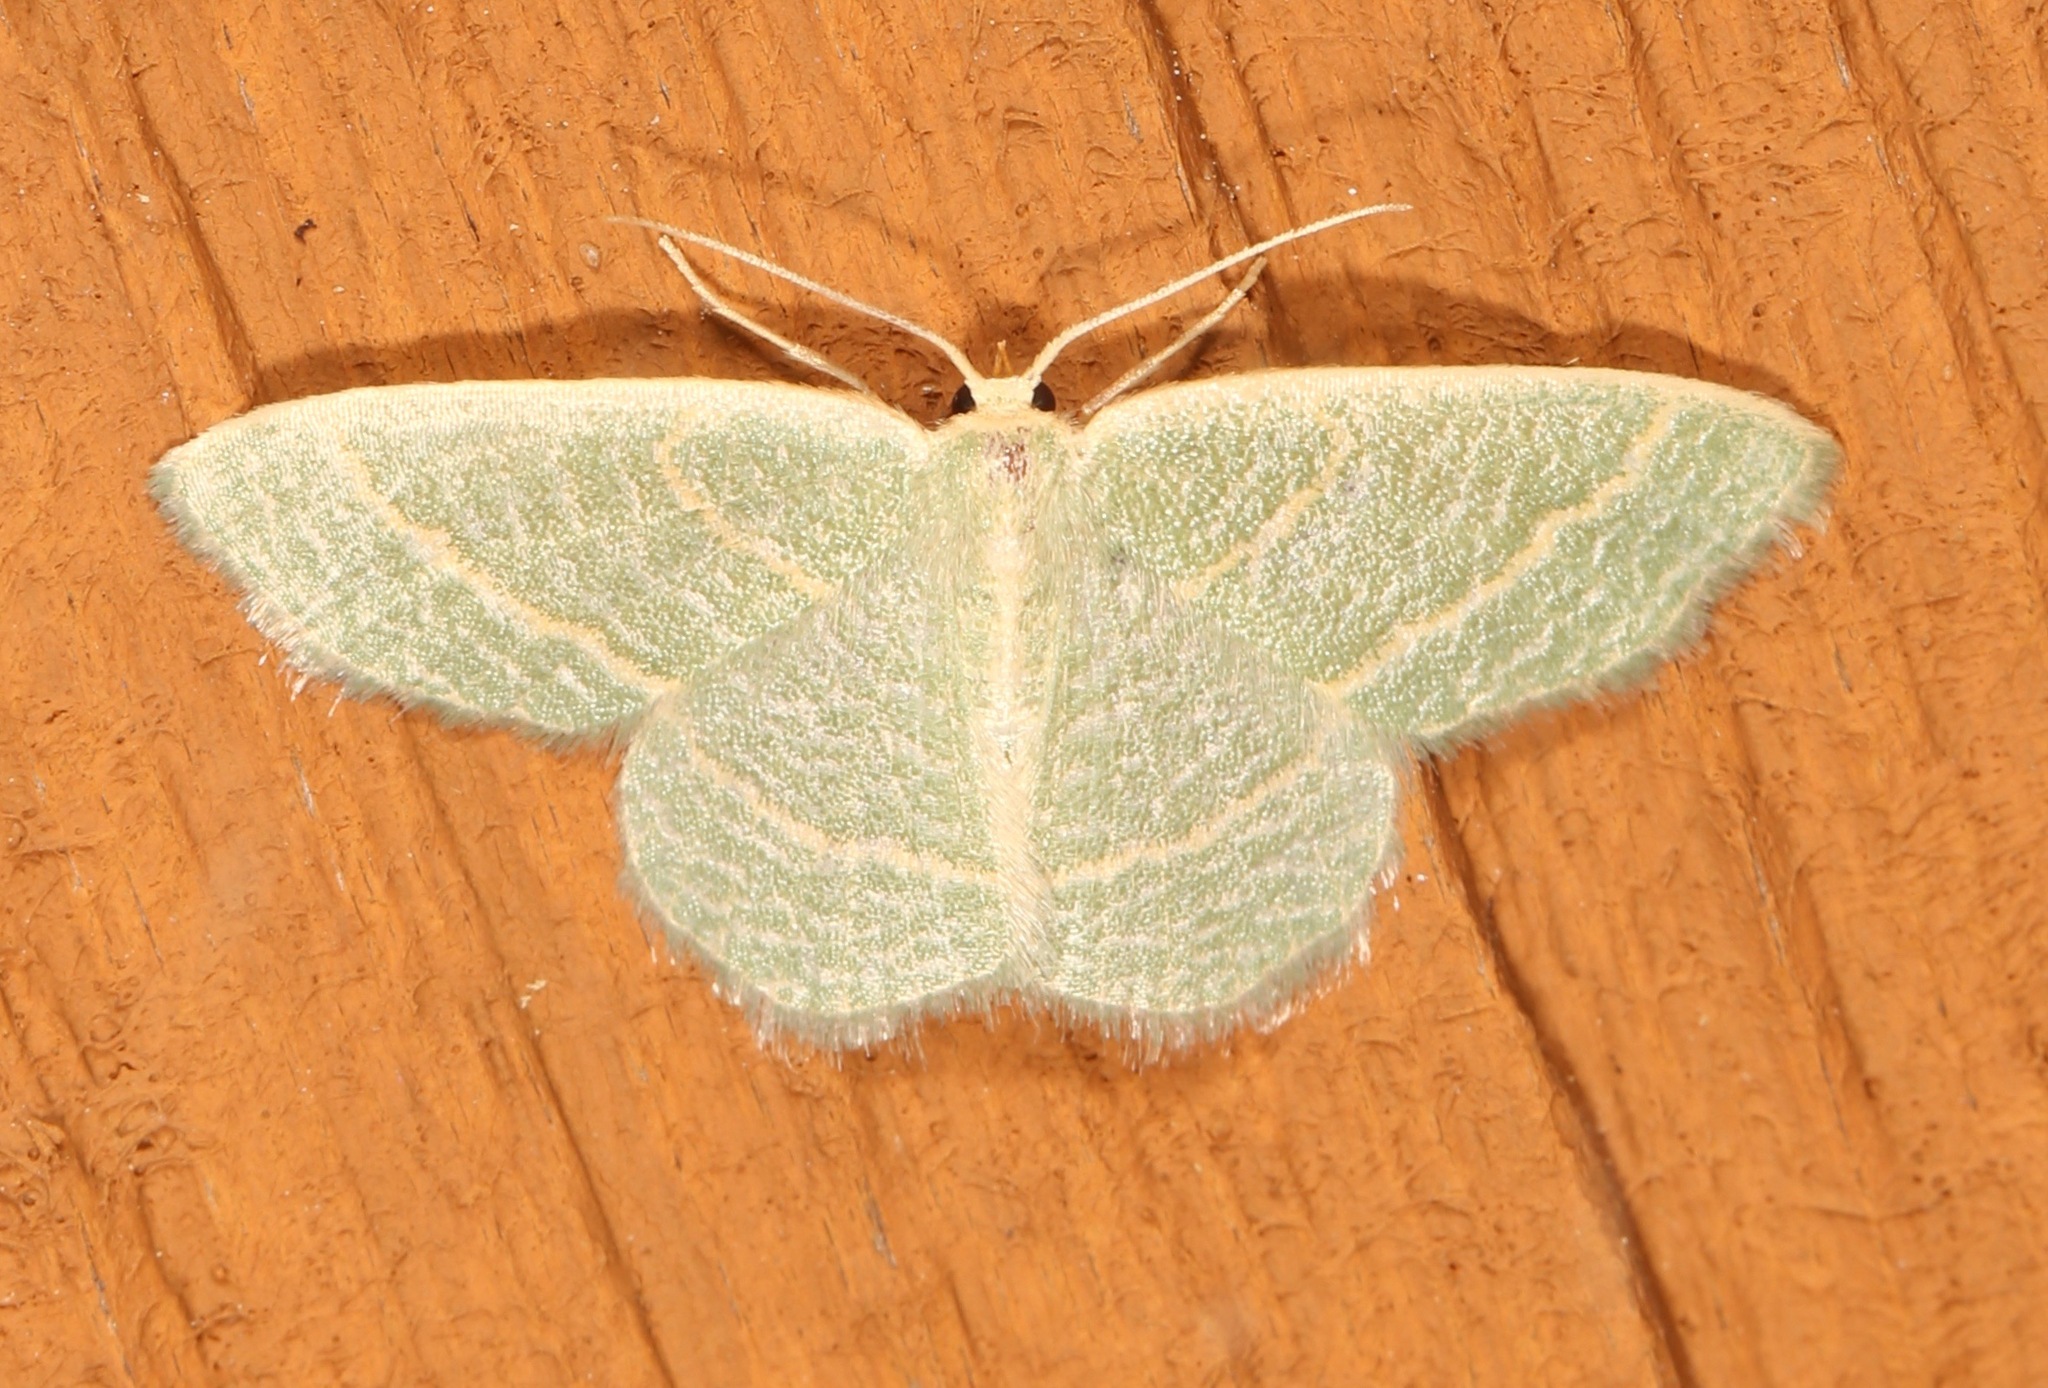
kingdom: Animalia
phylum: Arthropoda
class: Insecta
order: Lepidoptera
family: Geometridae
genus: Chlorochlamys
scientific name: Chlorochlamys chloroleucaria
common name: Blackberry looper
